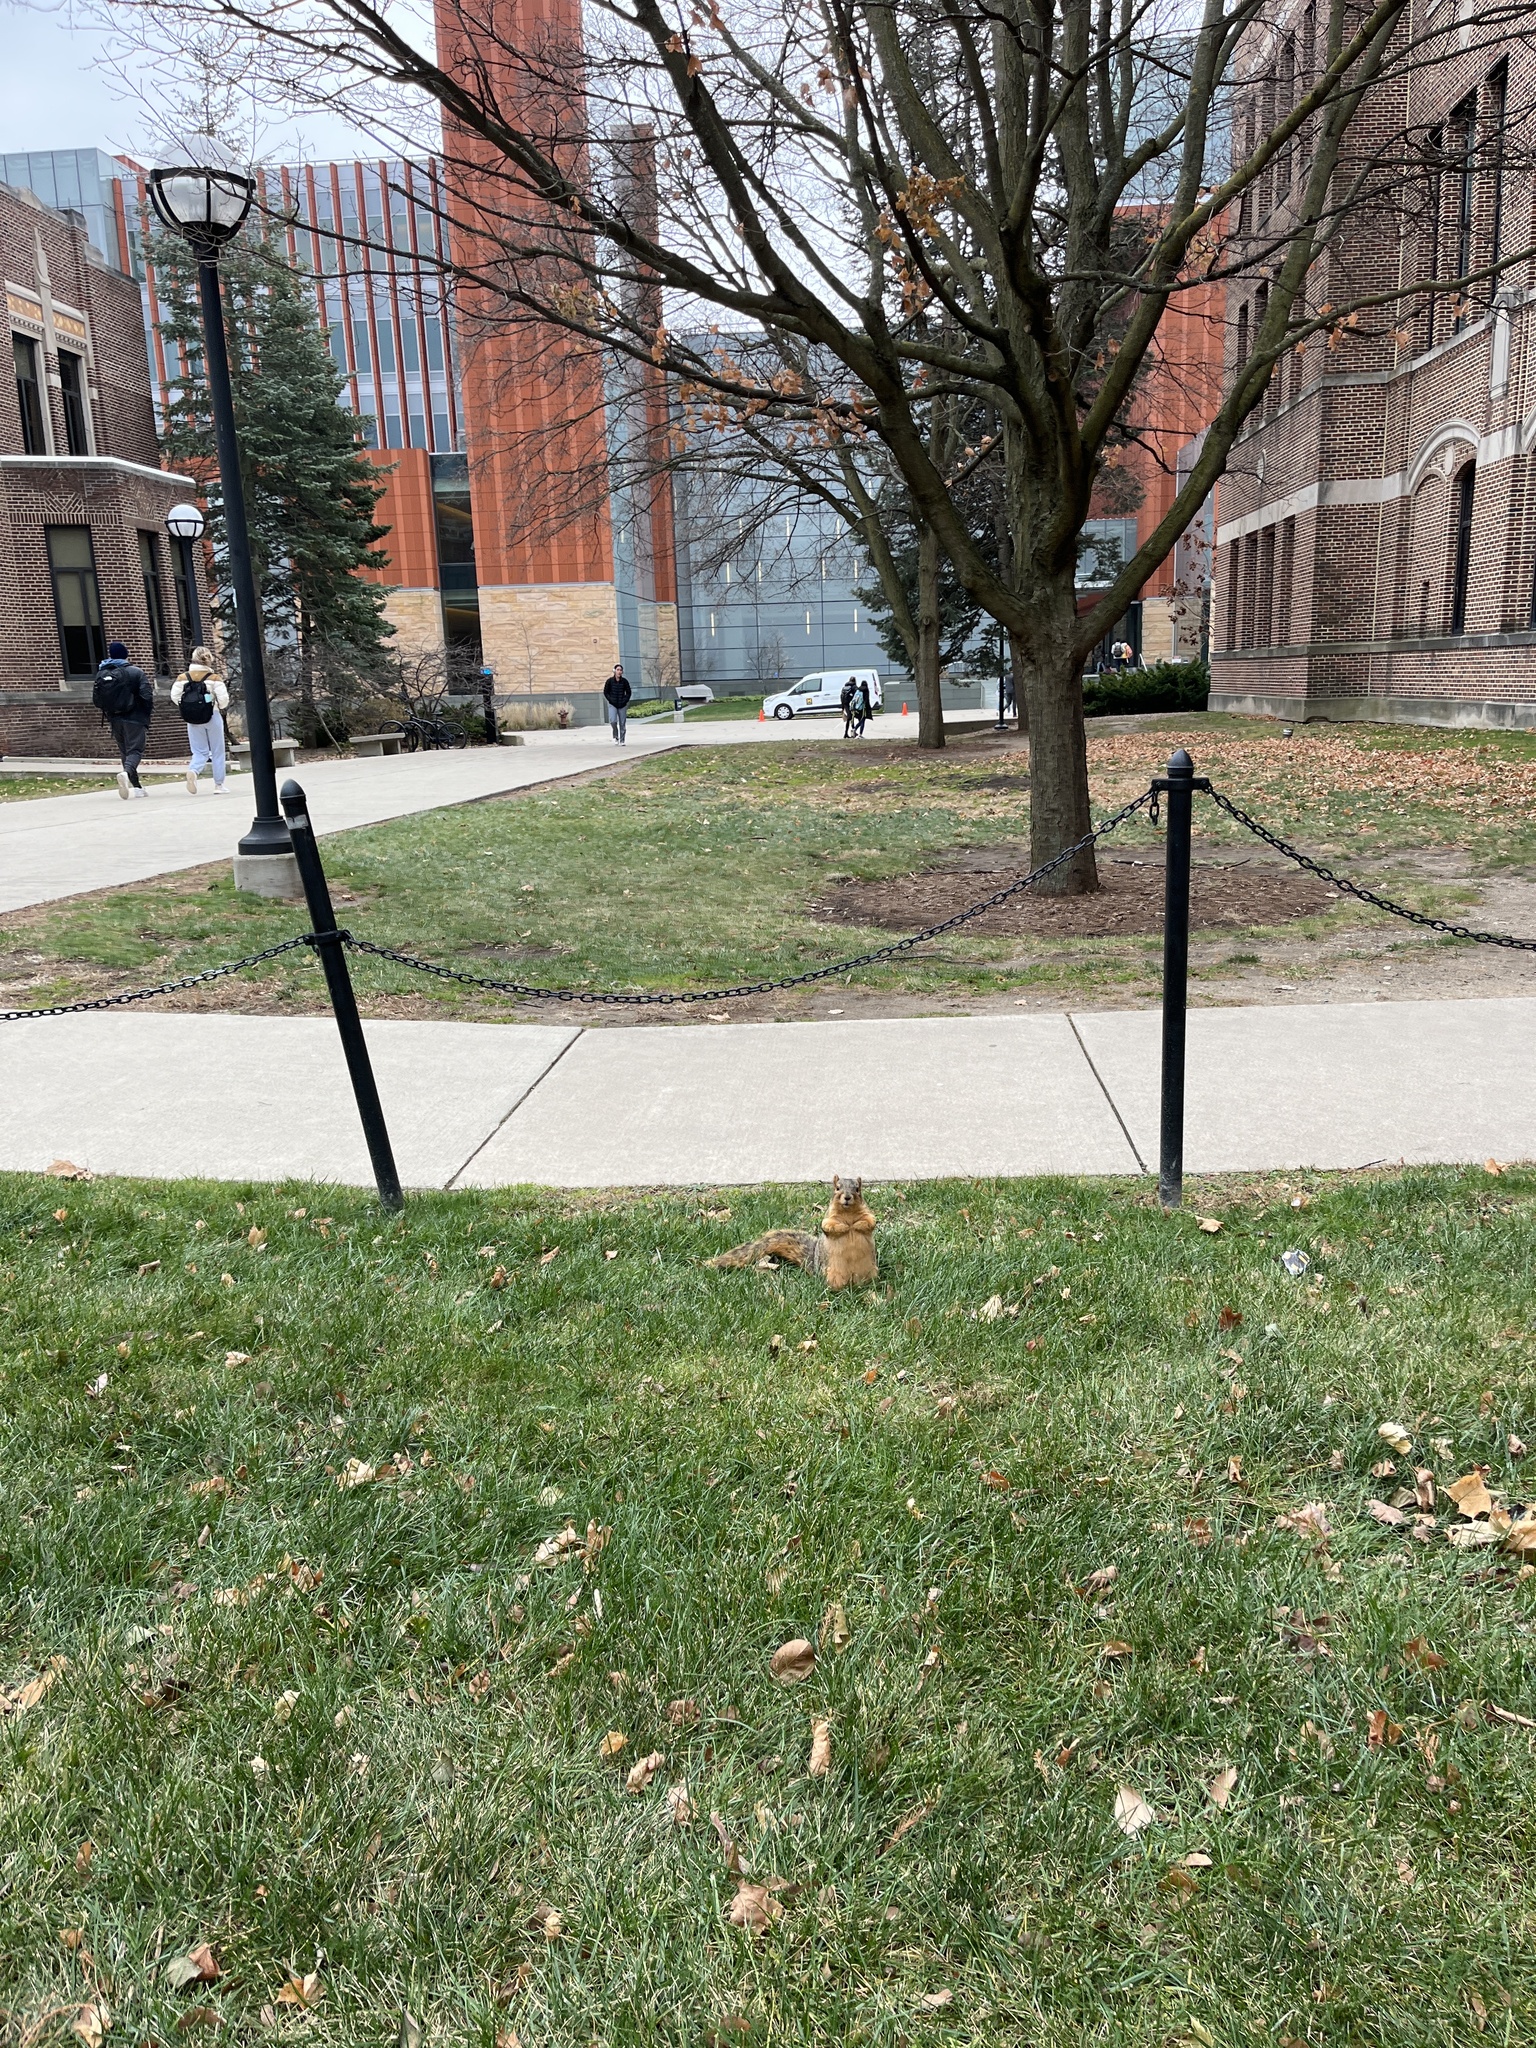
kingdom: Animalia
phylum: Chordata
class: Mammalia
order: Rodentia
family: Sciuridae
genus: Sciurus
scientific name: Sciurus niger
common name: Fox squirrel
